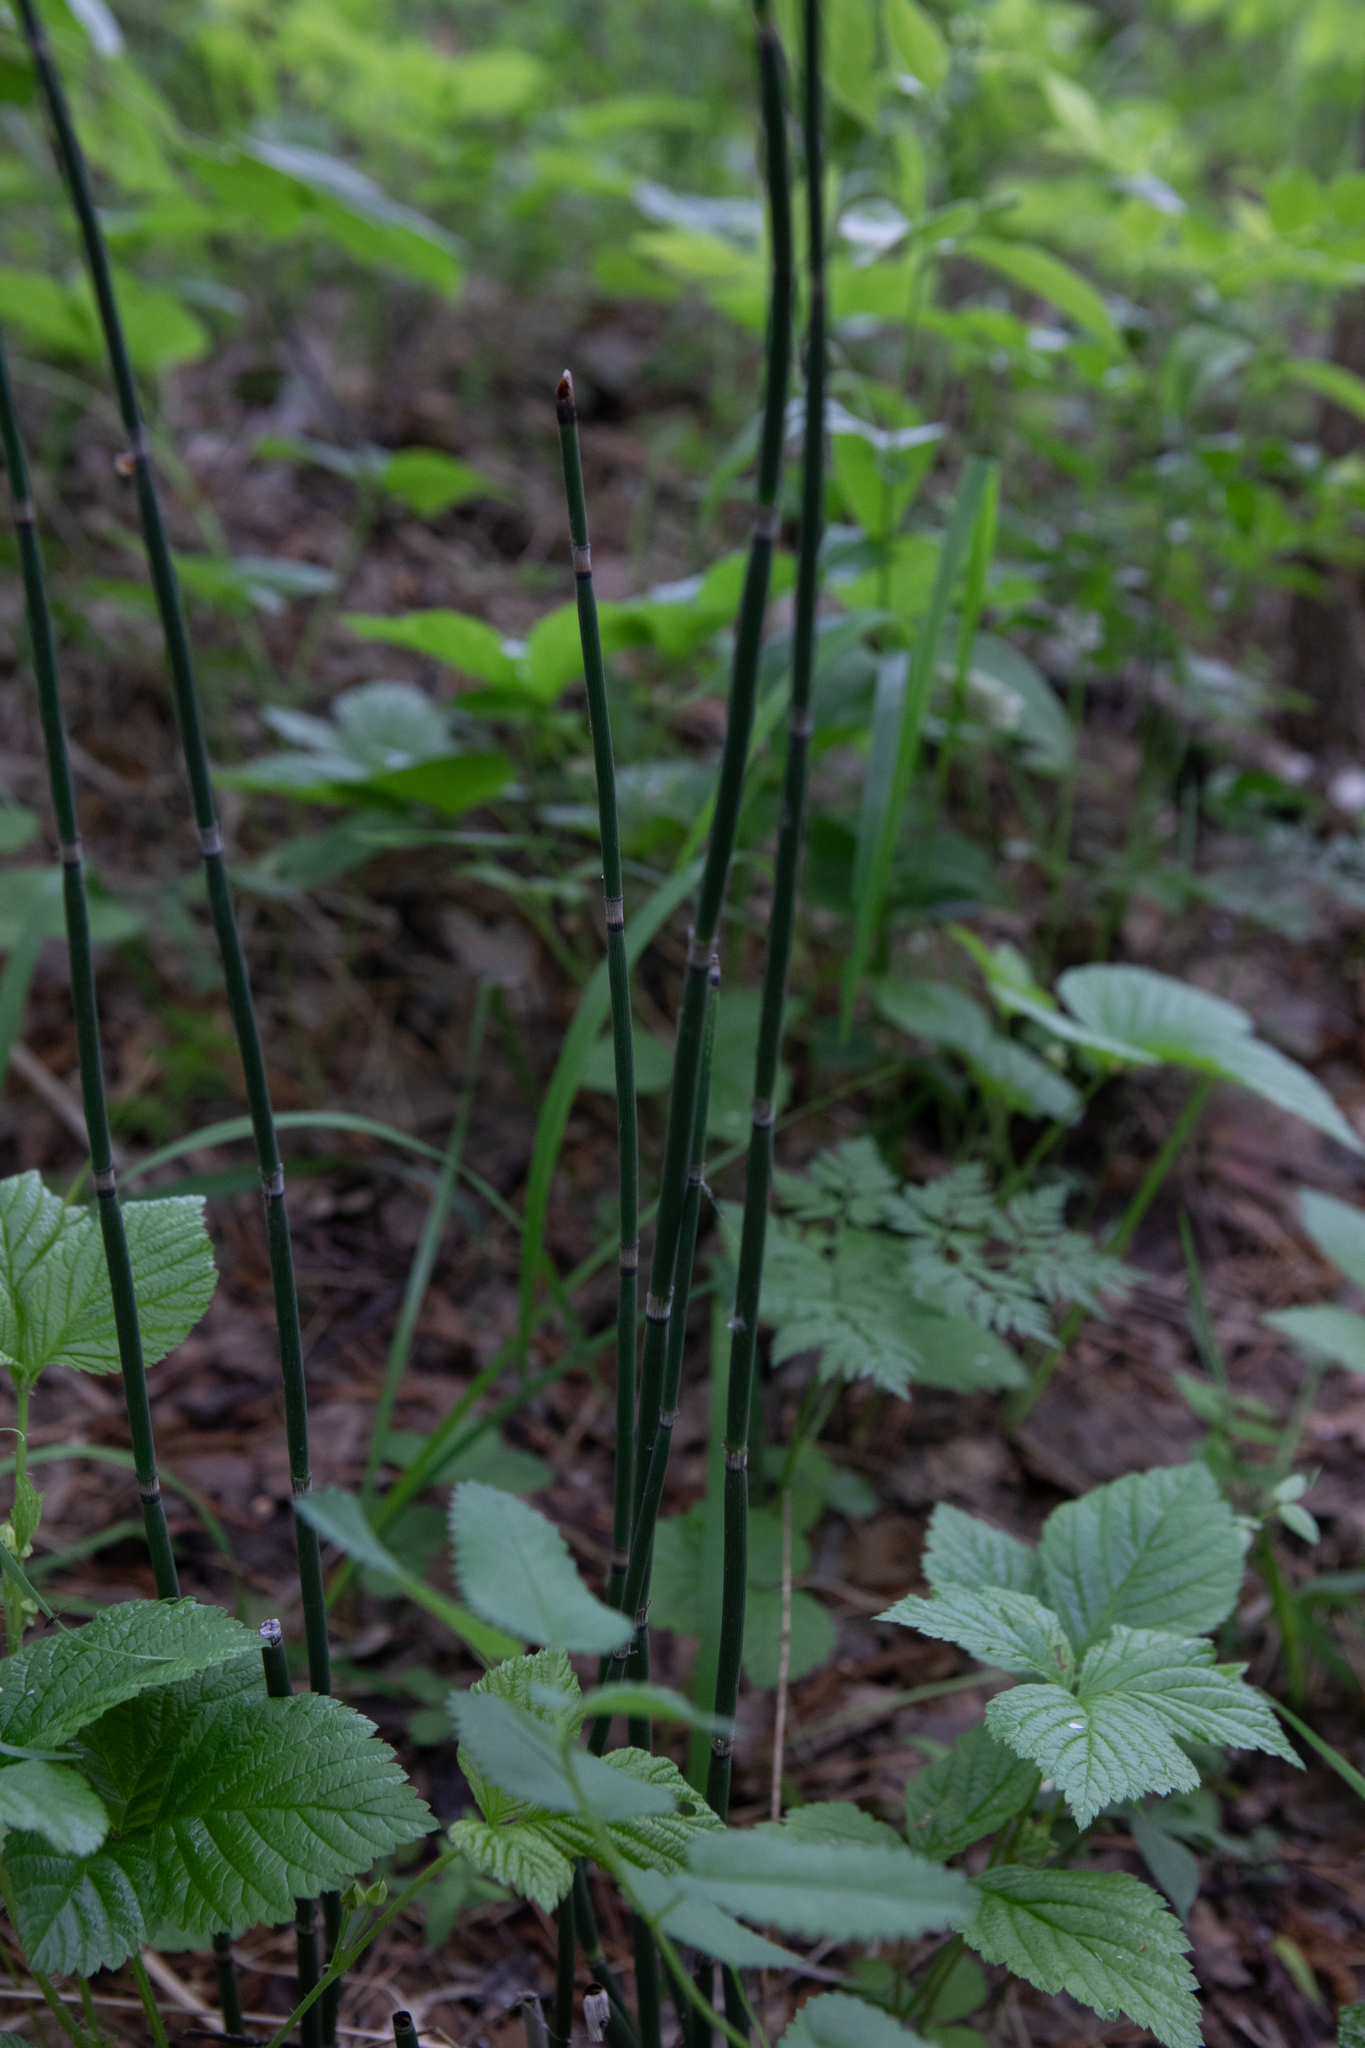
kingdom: Plantae
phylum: Tracheophyta
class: Polypodiopsida
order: Equisetales
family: Equisetaceae
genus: Equisetum
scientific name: Equisetum hyemale
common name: Rough horsetail
